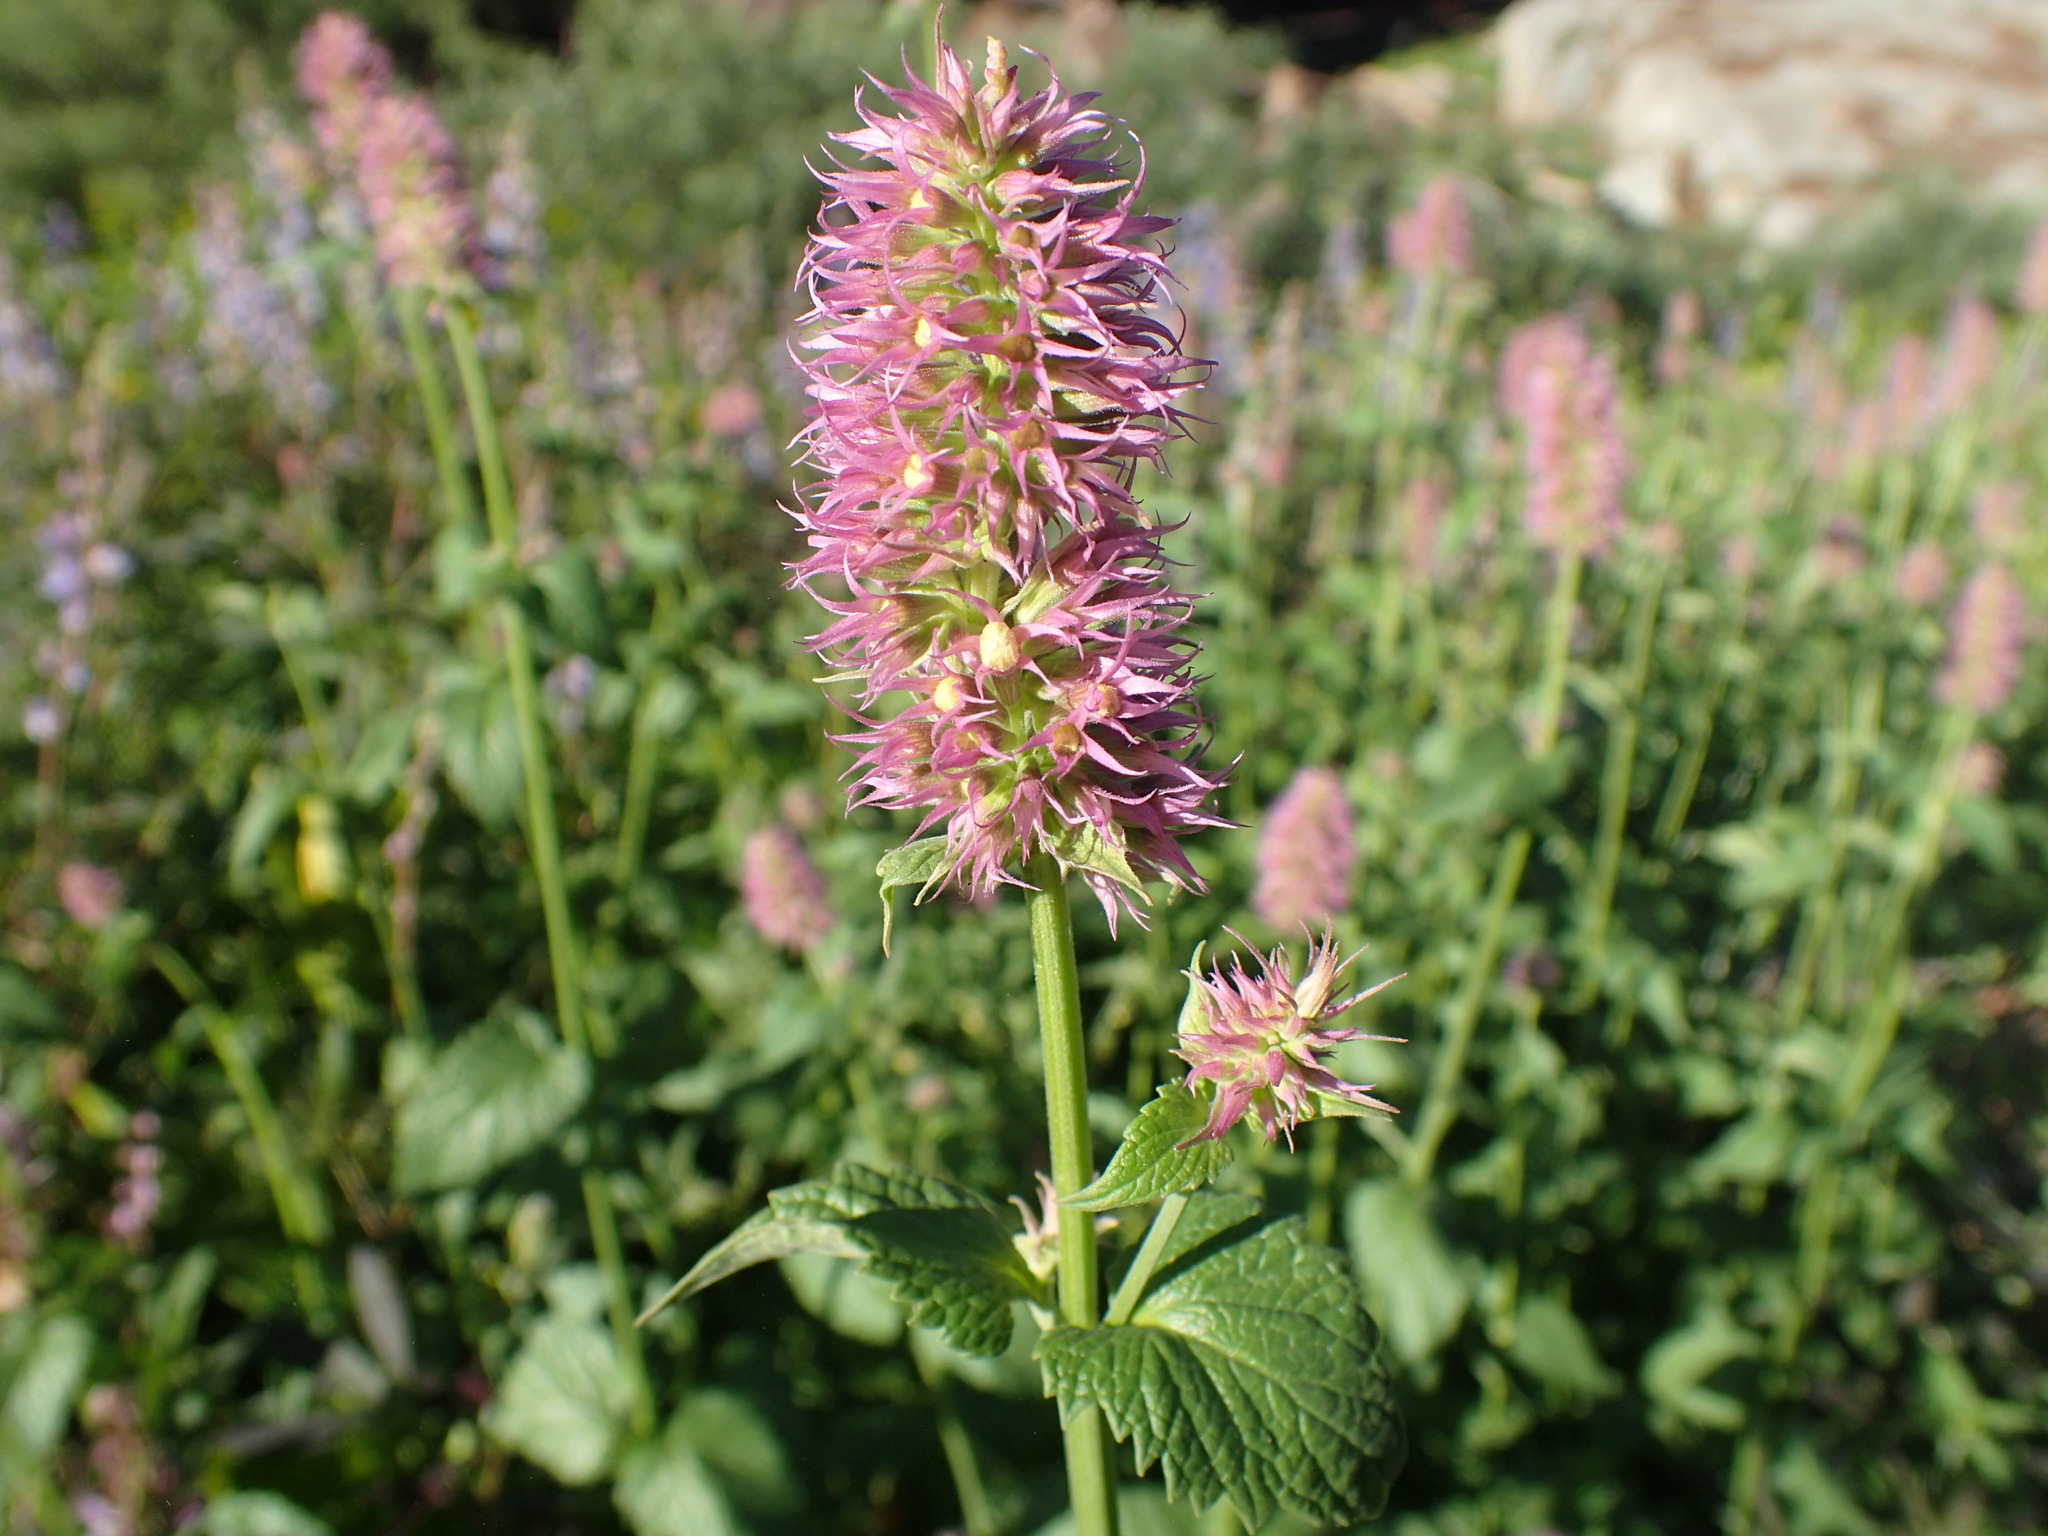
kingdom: Plantae
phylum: Tracheophyta
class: Magnoliopsida
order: Lamiales
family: Lamiaceae
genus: Agastache
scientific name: Agastache urticifolia
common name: Horsemint giant hyssop
